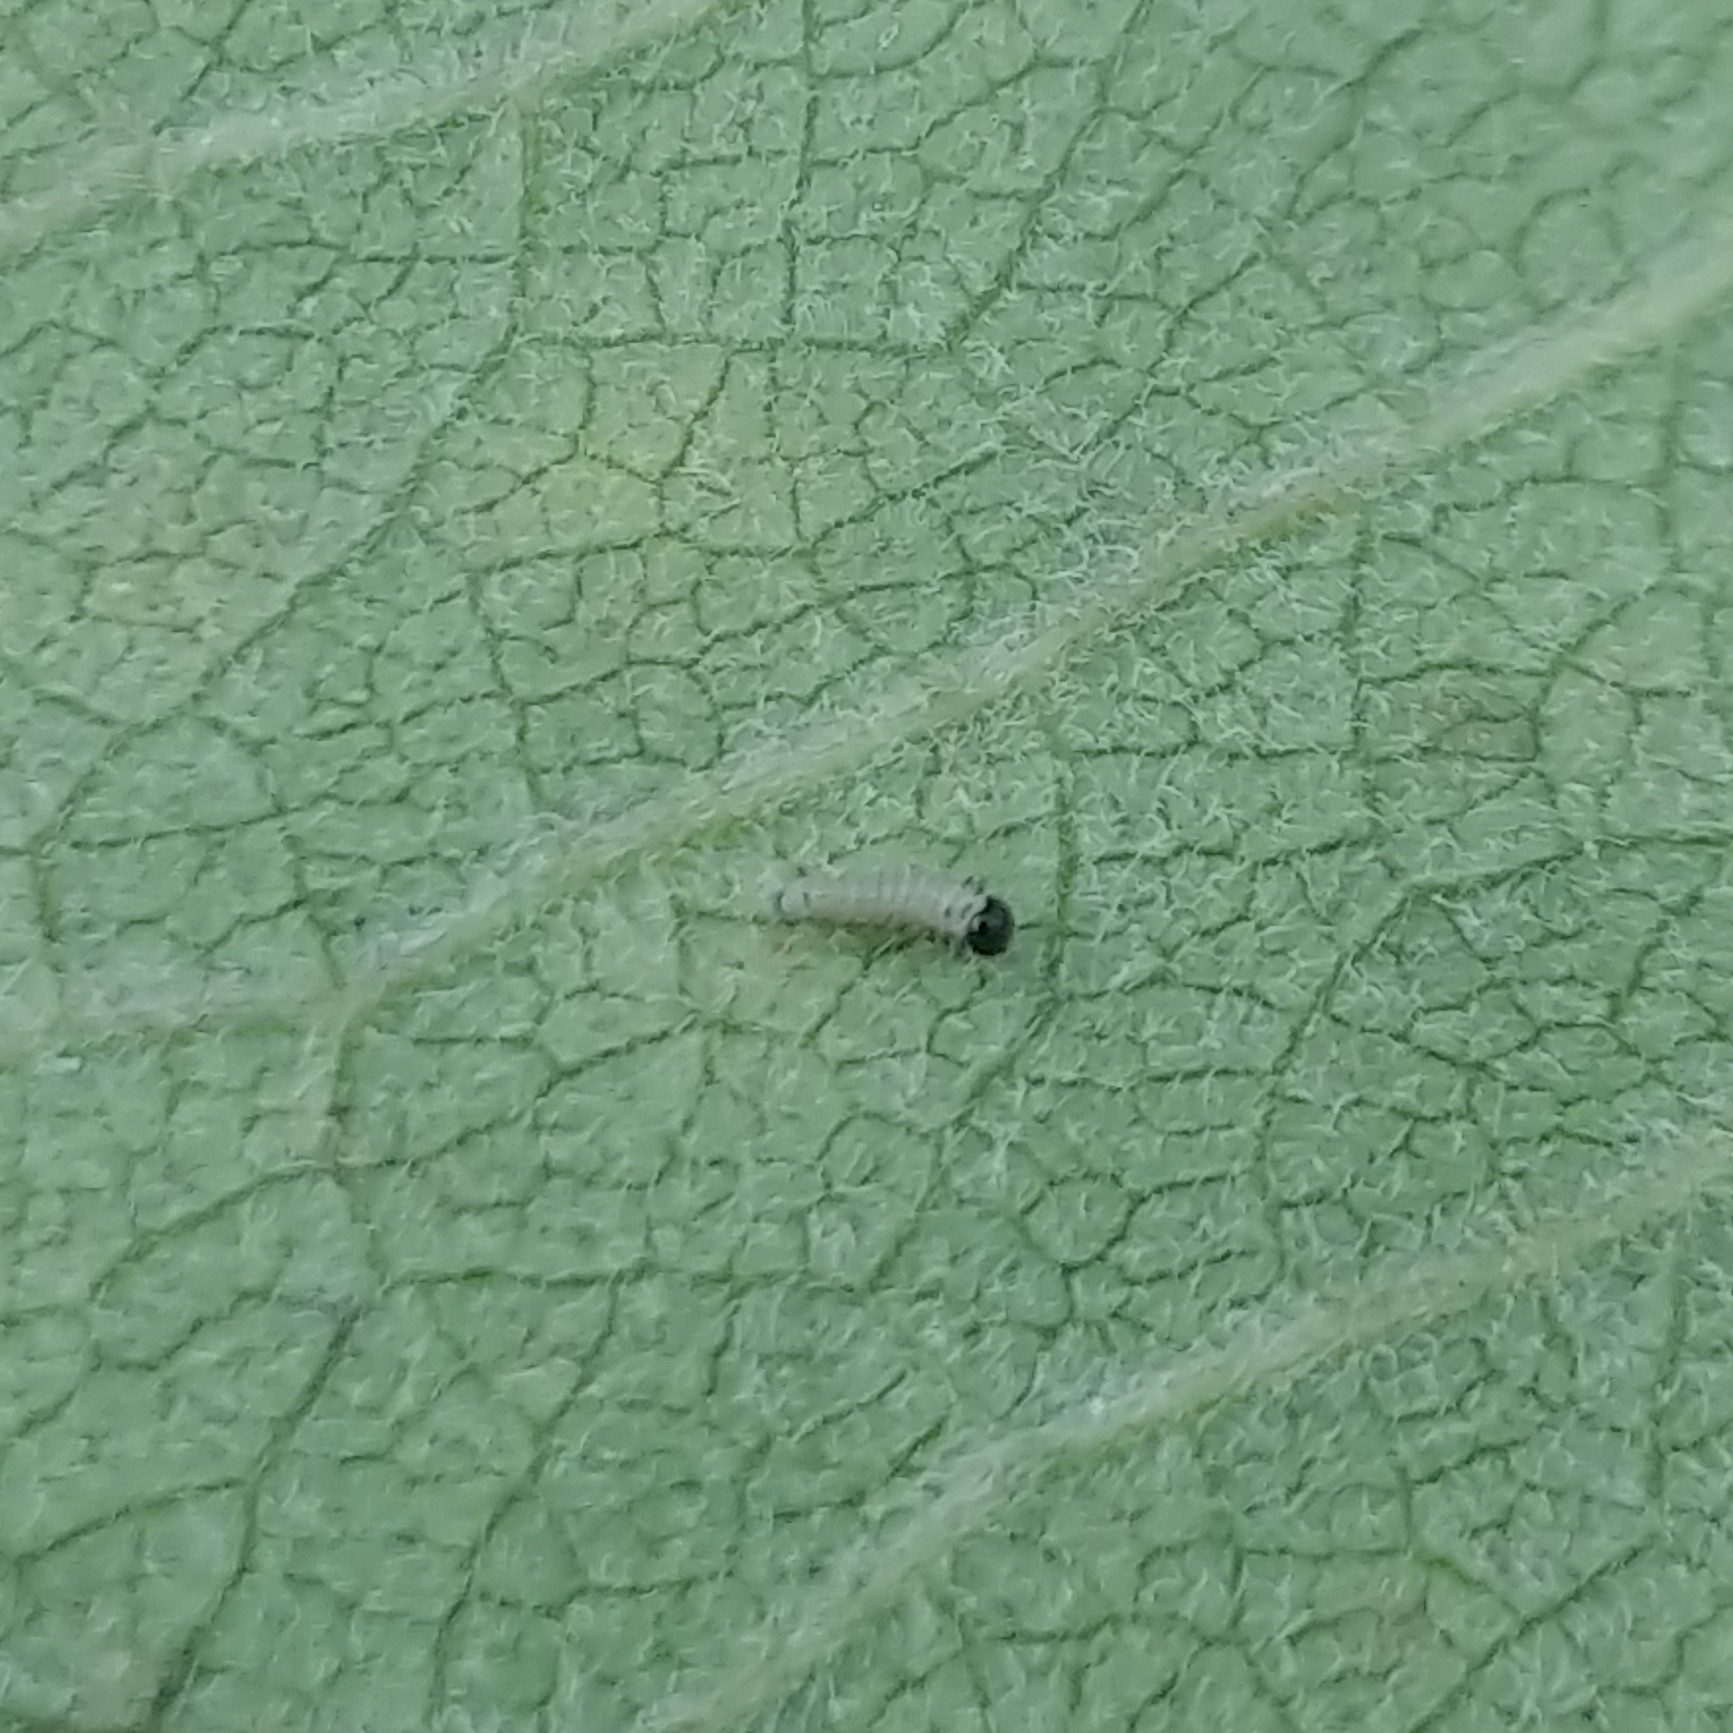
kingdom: Animalia
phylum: Arthropoda
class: Insecta
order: Lepidoptera
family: Nymphalidae
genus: Danaus
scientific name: Danaus plexippus
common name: Monarch
